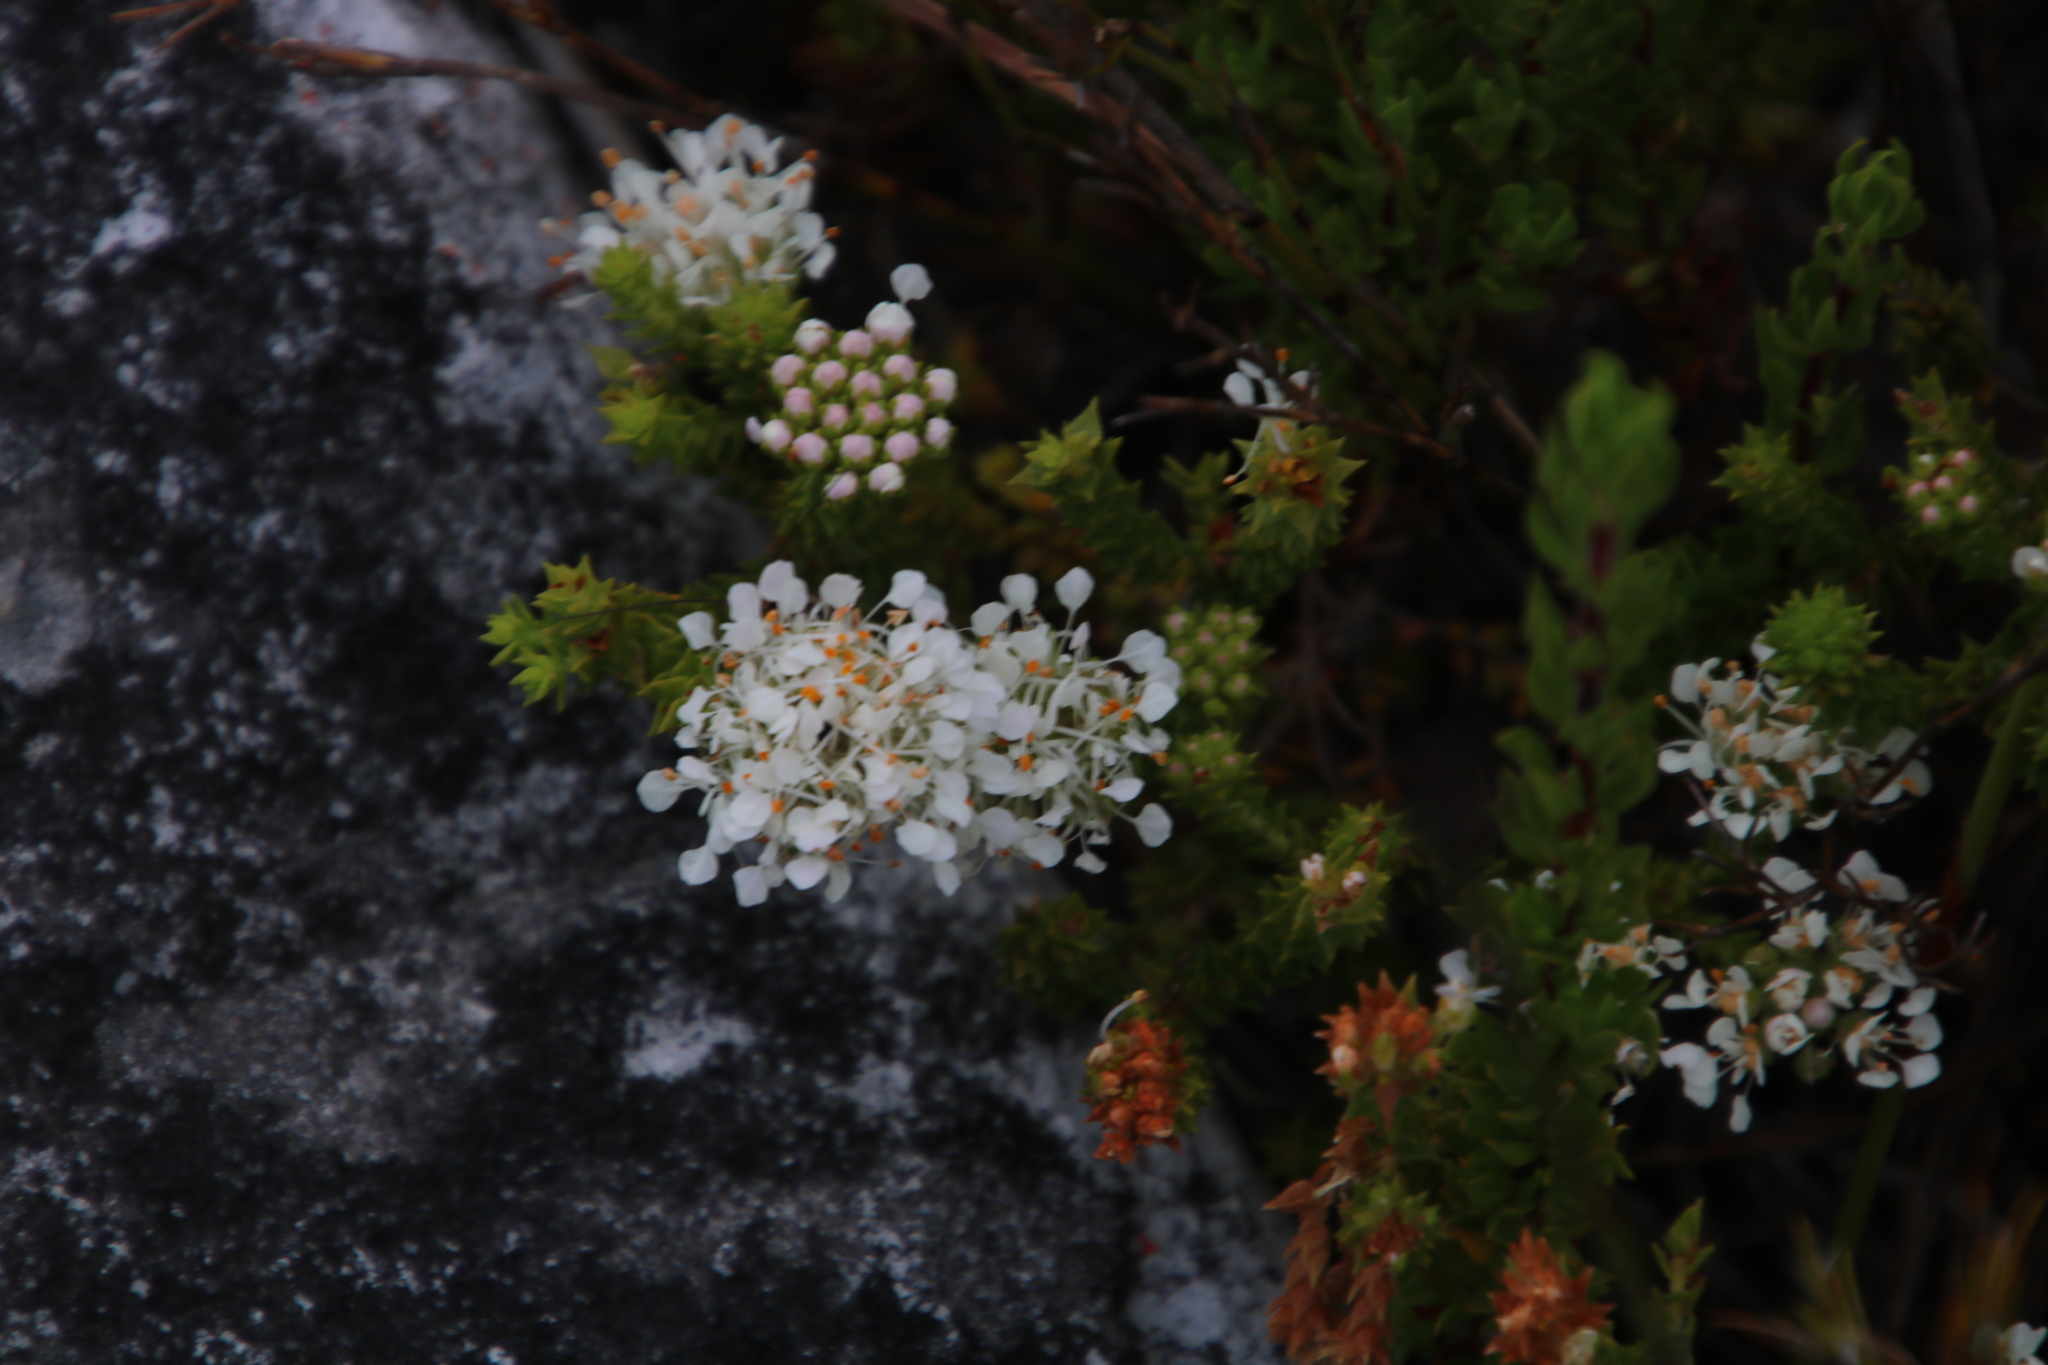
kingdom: Plantae
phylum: Tracheophyta
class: Magnoliopsida
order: Sapindales
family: Rutaceae
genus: Agathosma
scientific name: Agathosma imbricata
